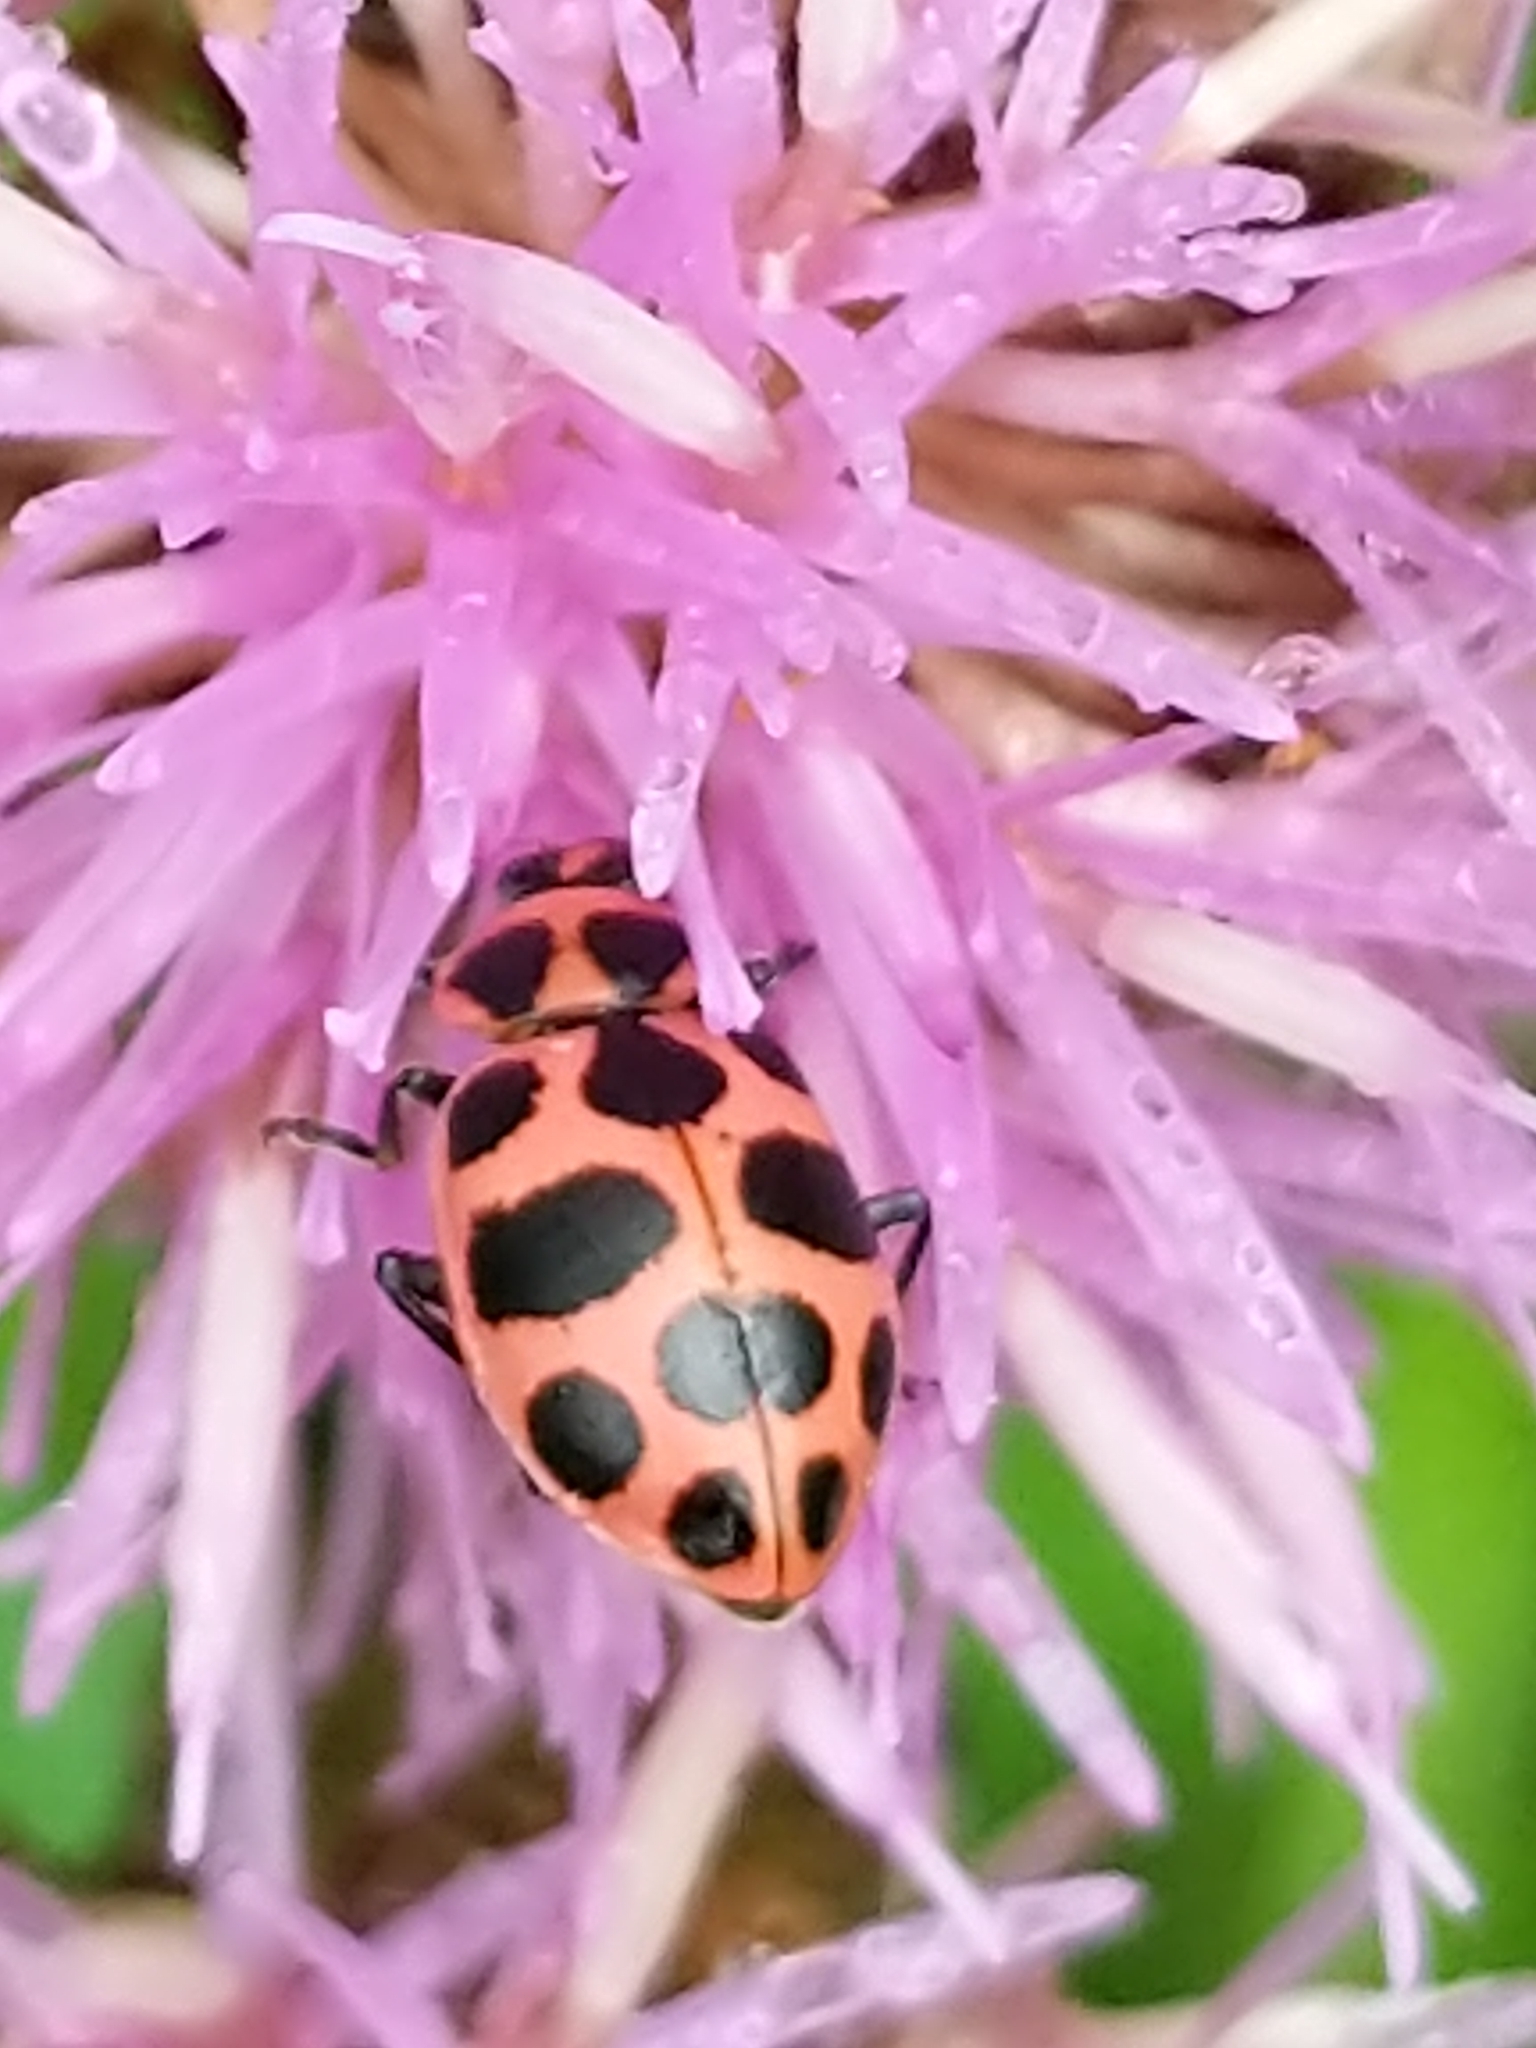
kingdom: Animalia
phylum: Arthropoda
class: Insecta
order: Coleoptera
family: Coccinellidae
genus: Coleomegilla
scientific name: Coleomegilla maculata
